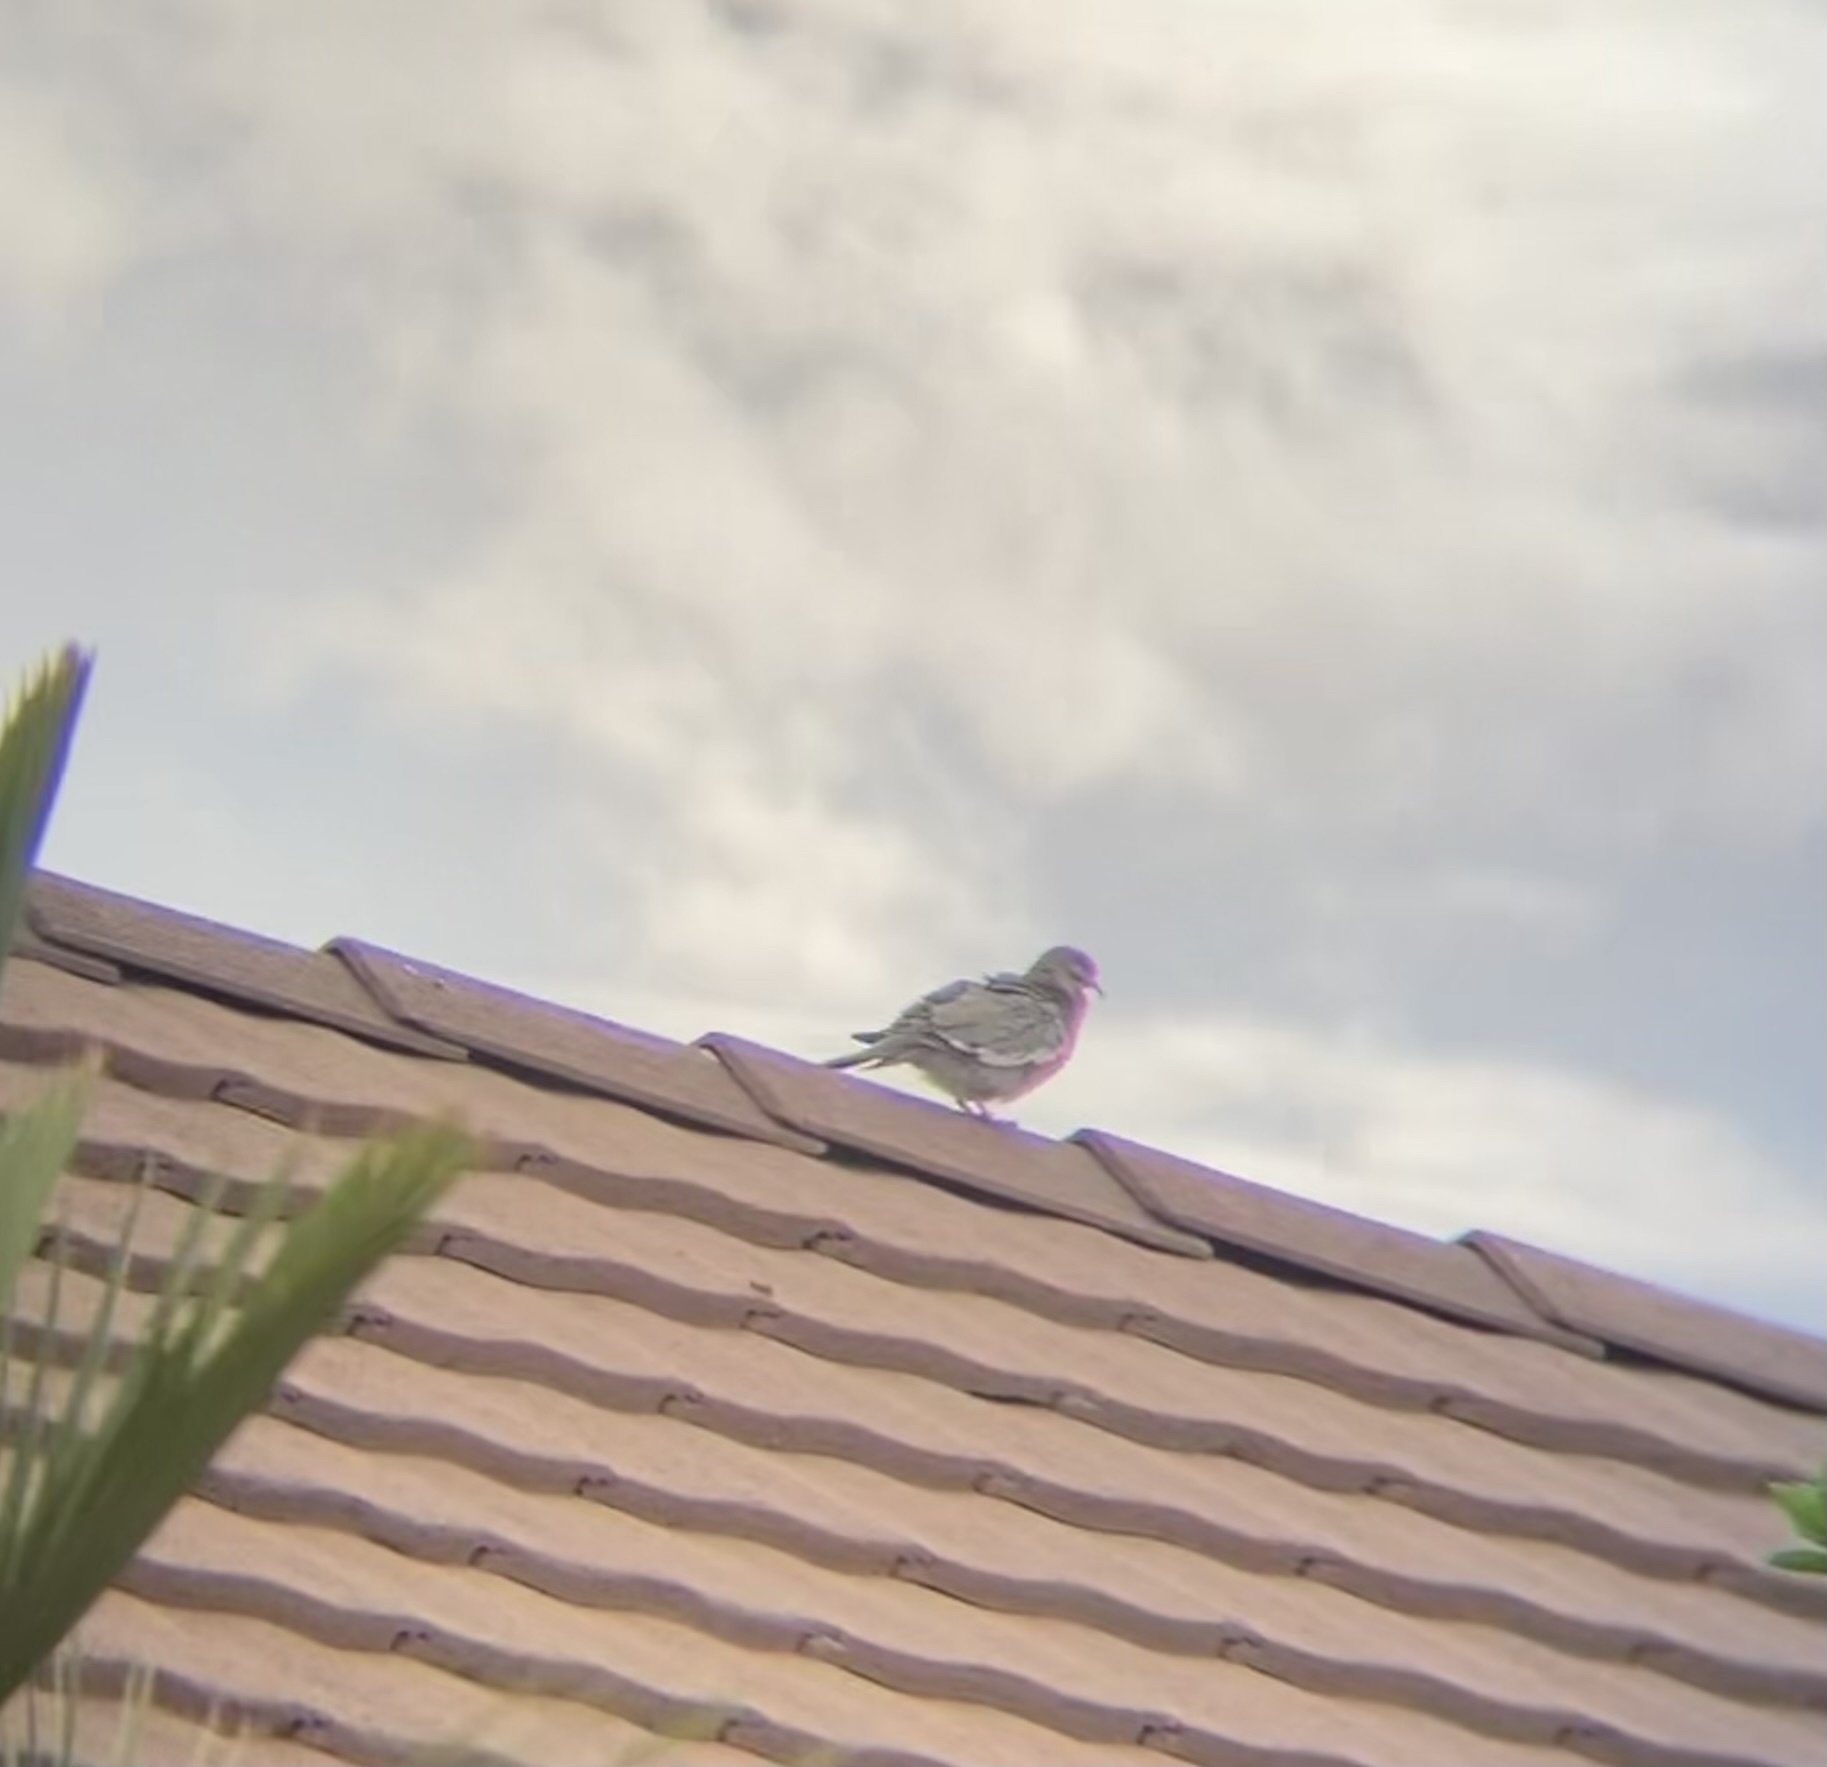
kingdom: Animalia
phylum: Chordata
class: Aves
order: Columbiformes
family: Columbidae
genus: Zenaida
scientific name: Zenaida asiatica
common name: White-winged dove
